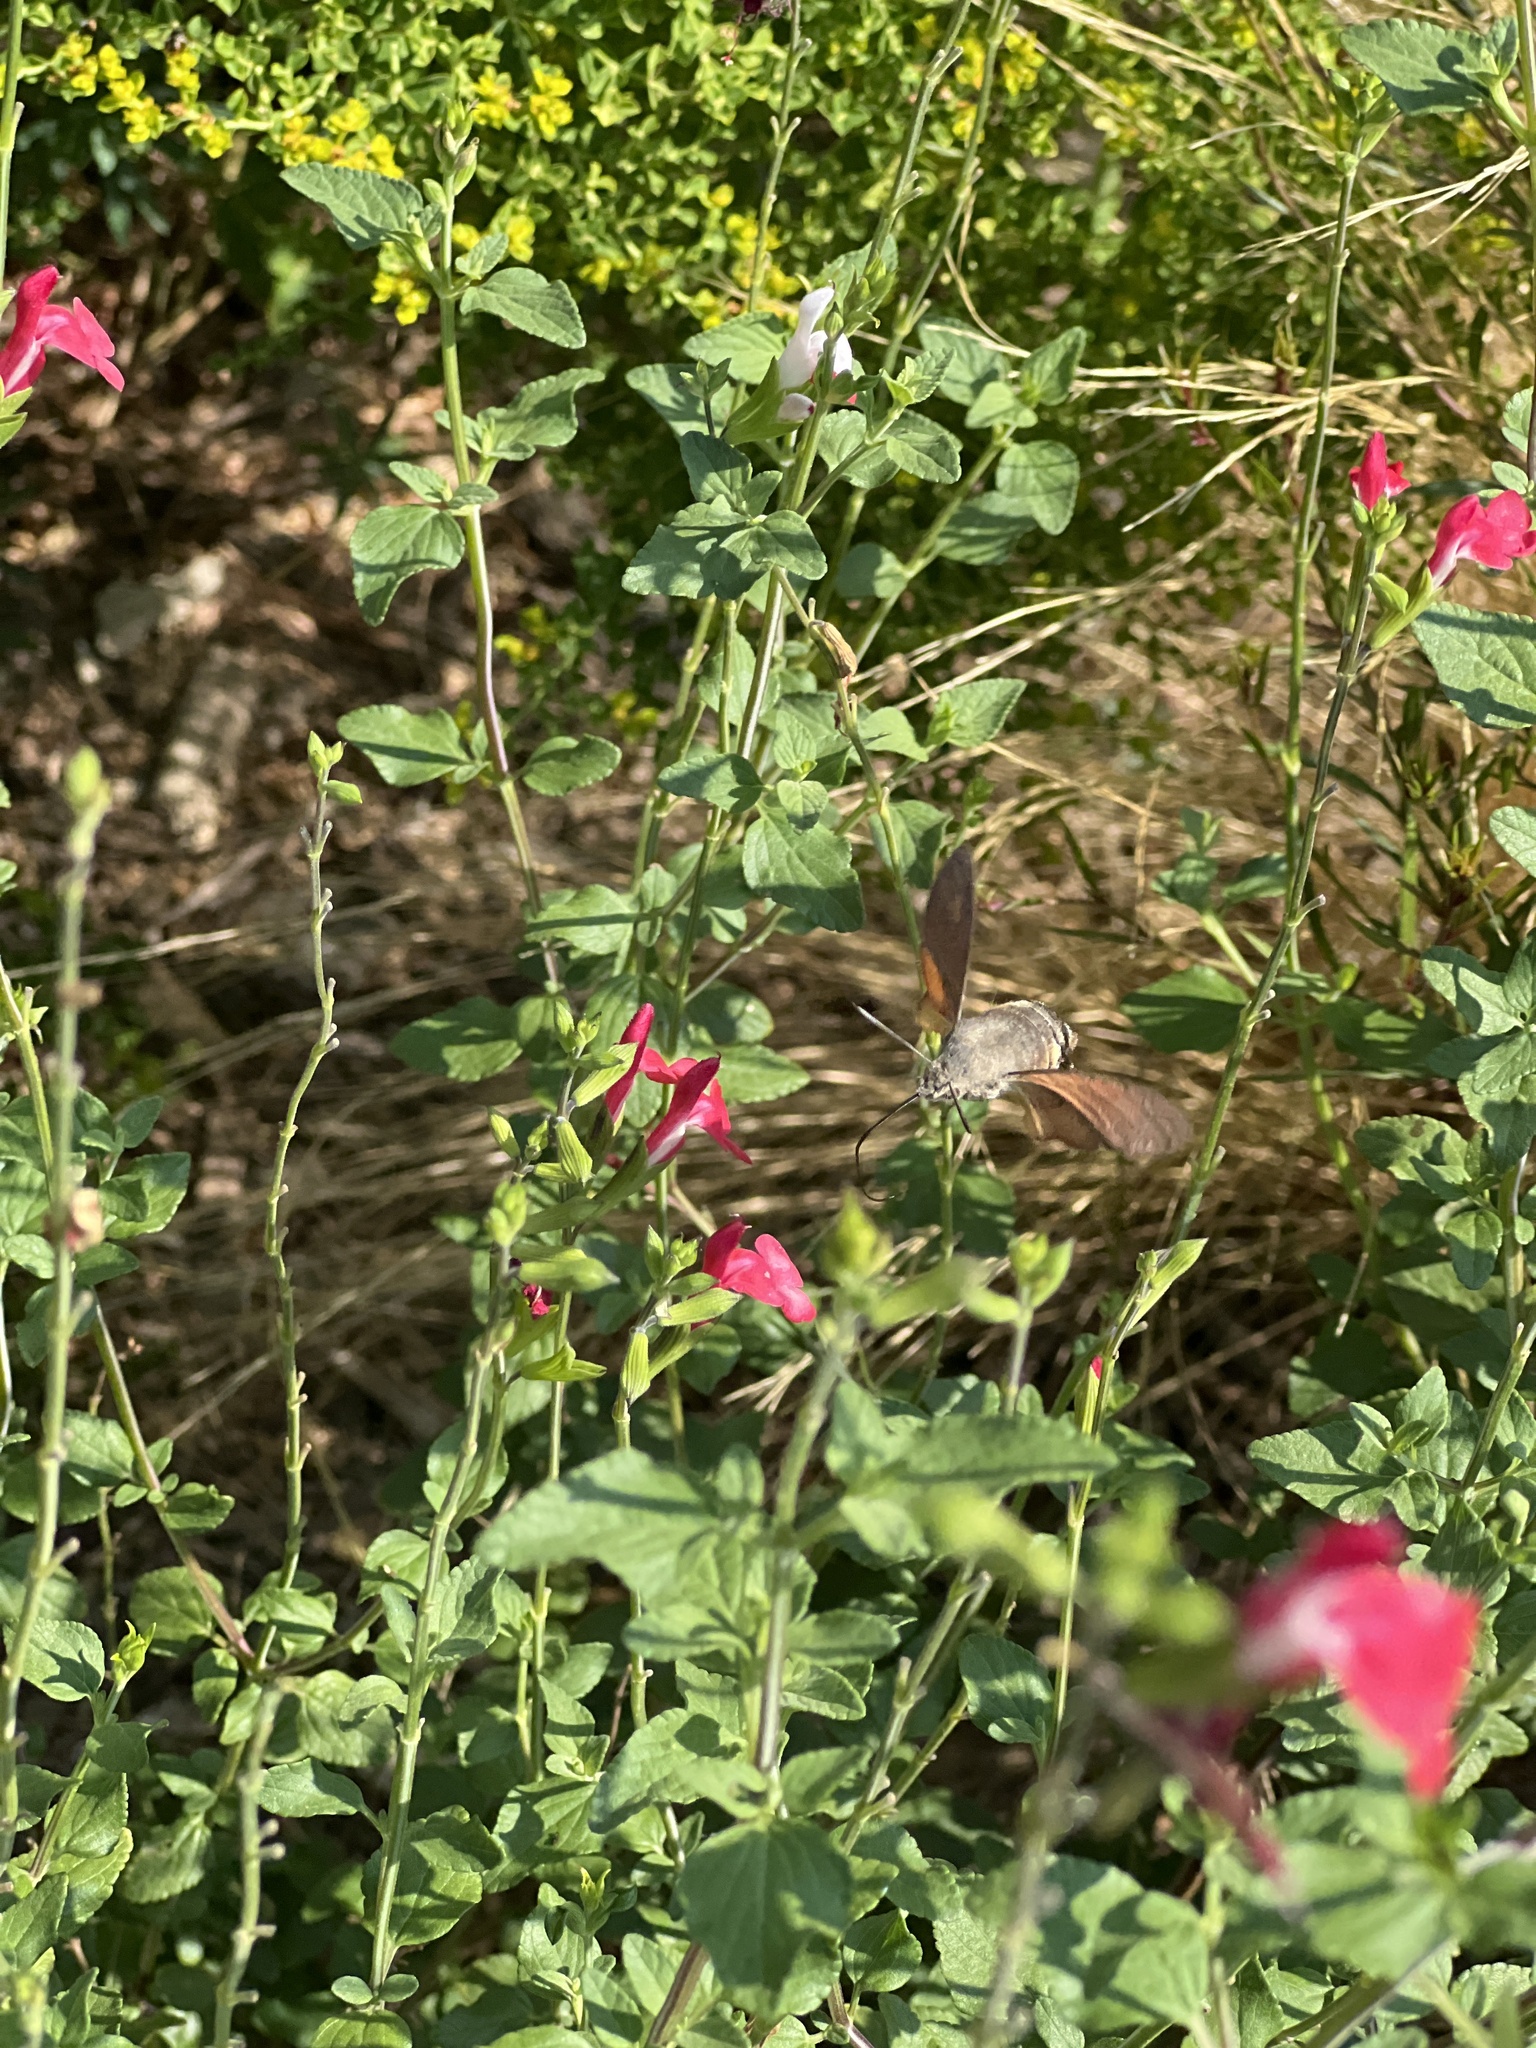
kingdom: Animalia
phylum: Arthropoda
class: Insecta
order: Lepidoptera
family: Sphingidae
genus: Macroglossum
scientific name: Macroglossum stellatarum
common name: Humming-bird hawk-moth
